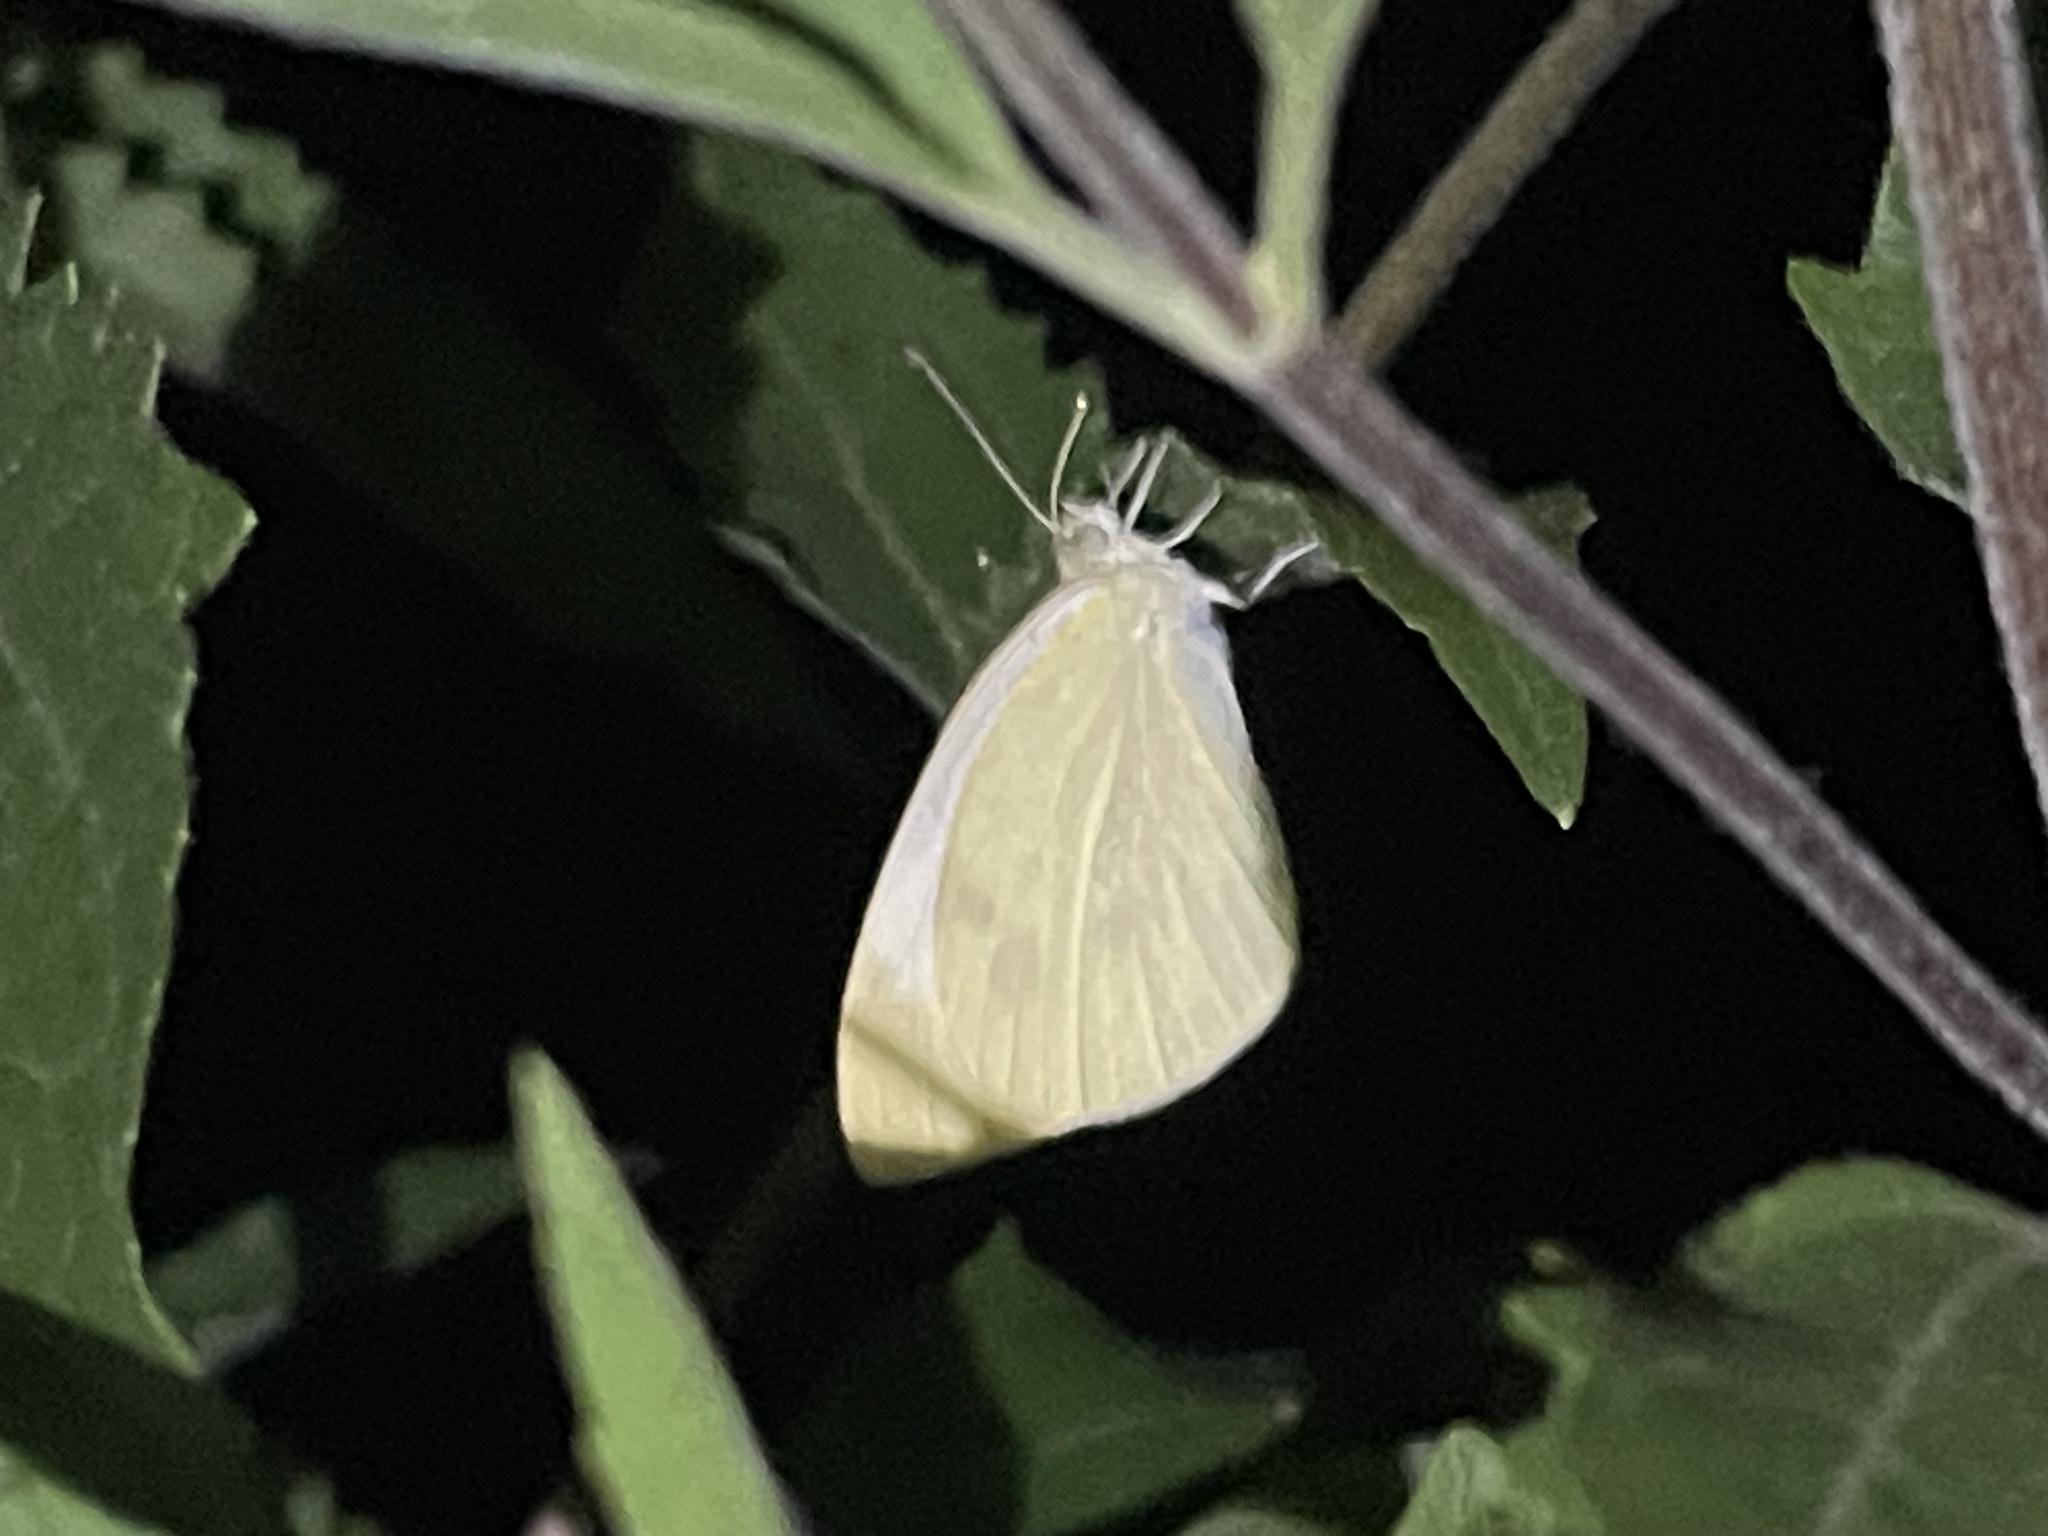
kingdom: Animalia
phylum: Arthropoda
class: Insecta
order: Lepidoptera
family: Pieridae
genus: Pieris
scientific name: Pieris rapae
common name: Small white
